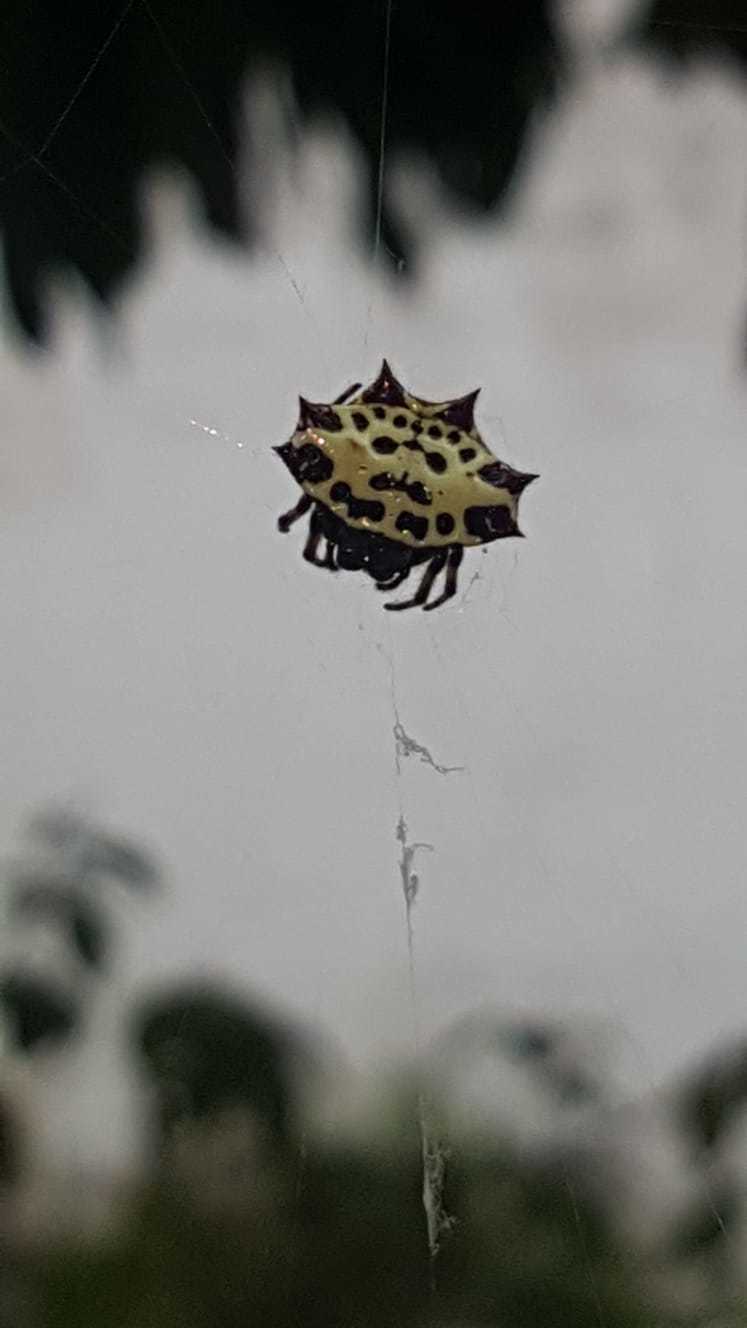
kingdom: Animalia
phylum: Arthropoda
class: Arachnida
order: Araneae
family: Araneidae
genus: Gasteracantha
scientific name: Gasteracantha cancriformis
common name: Orb weavers
